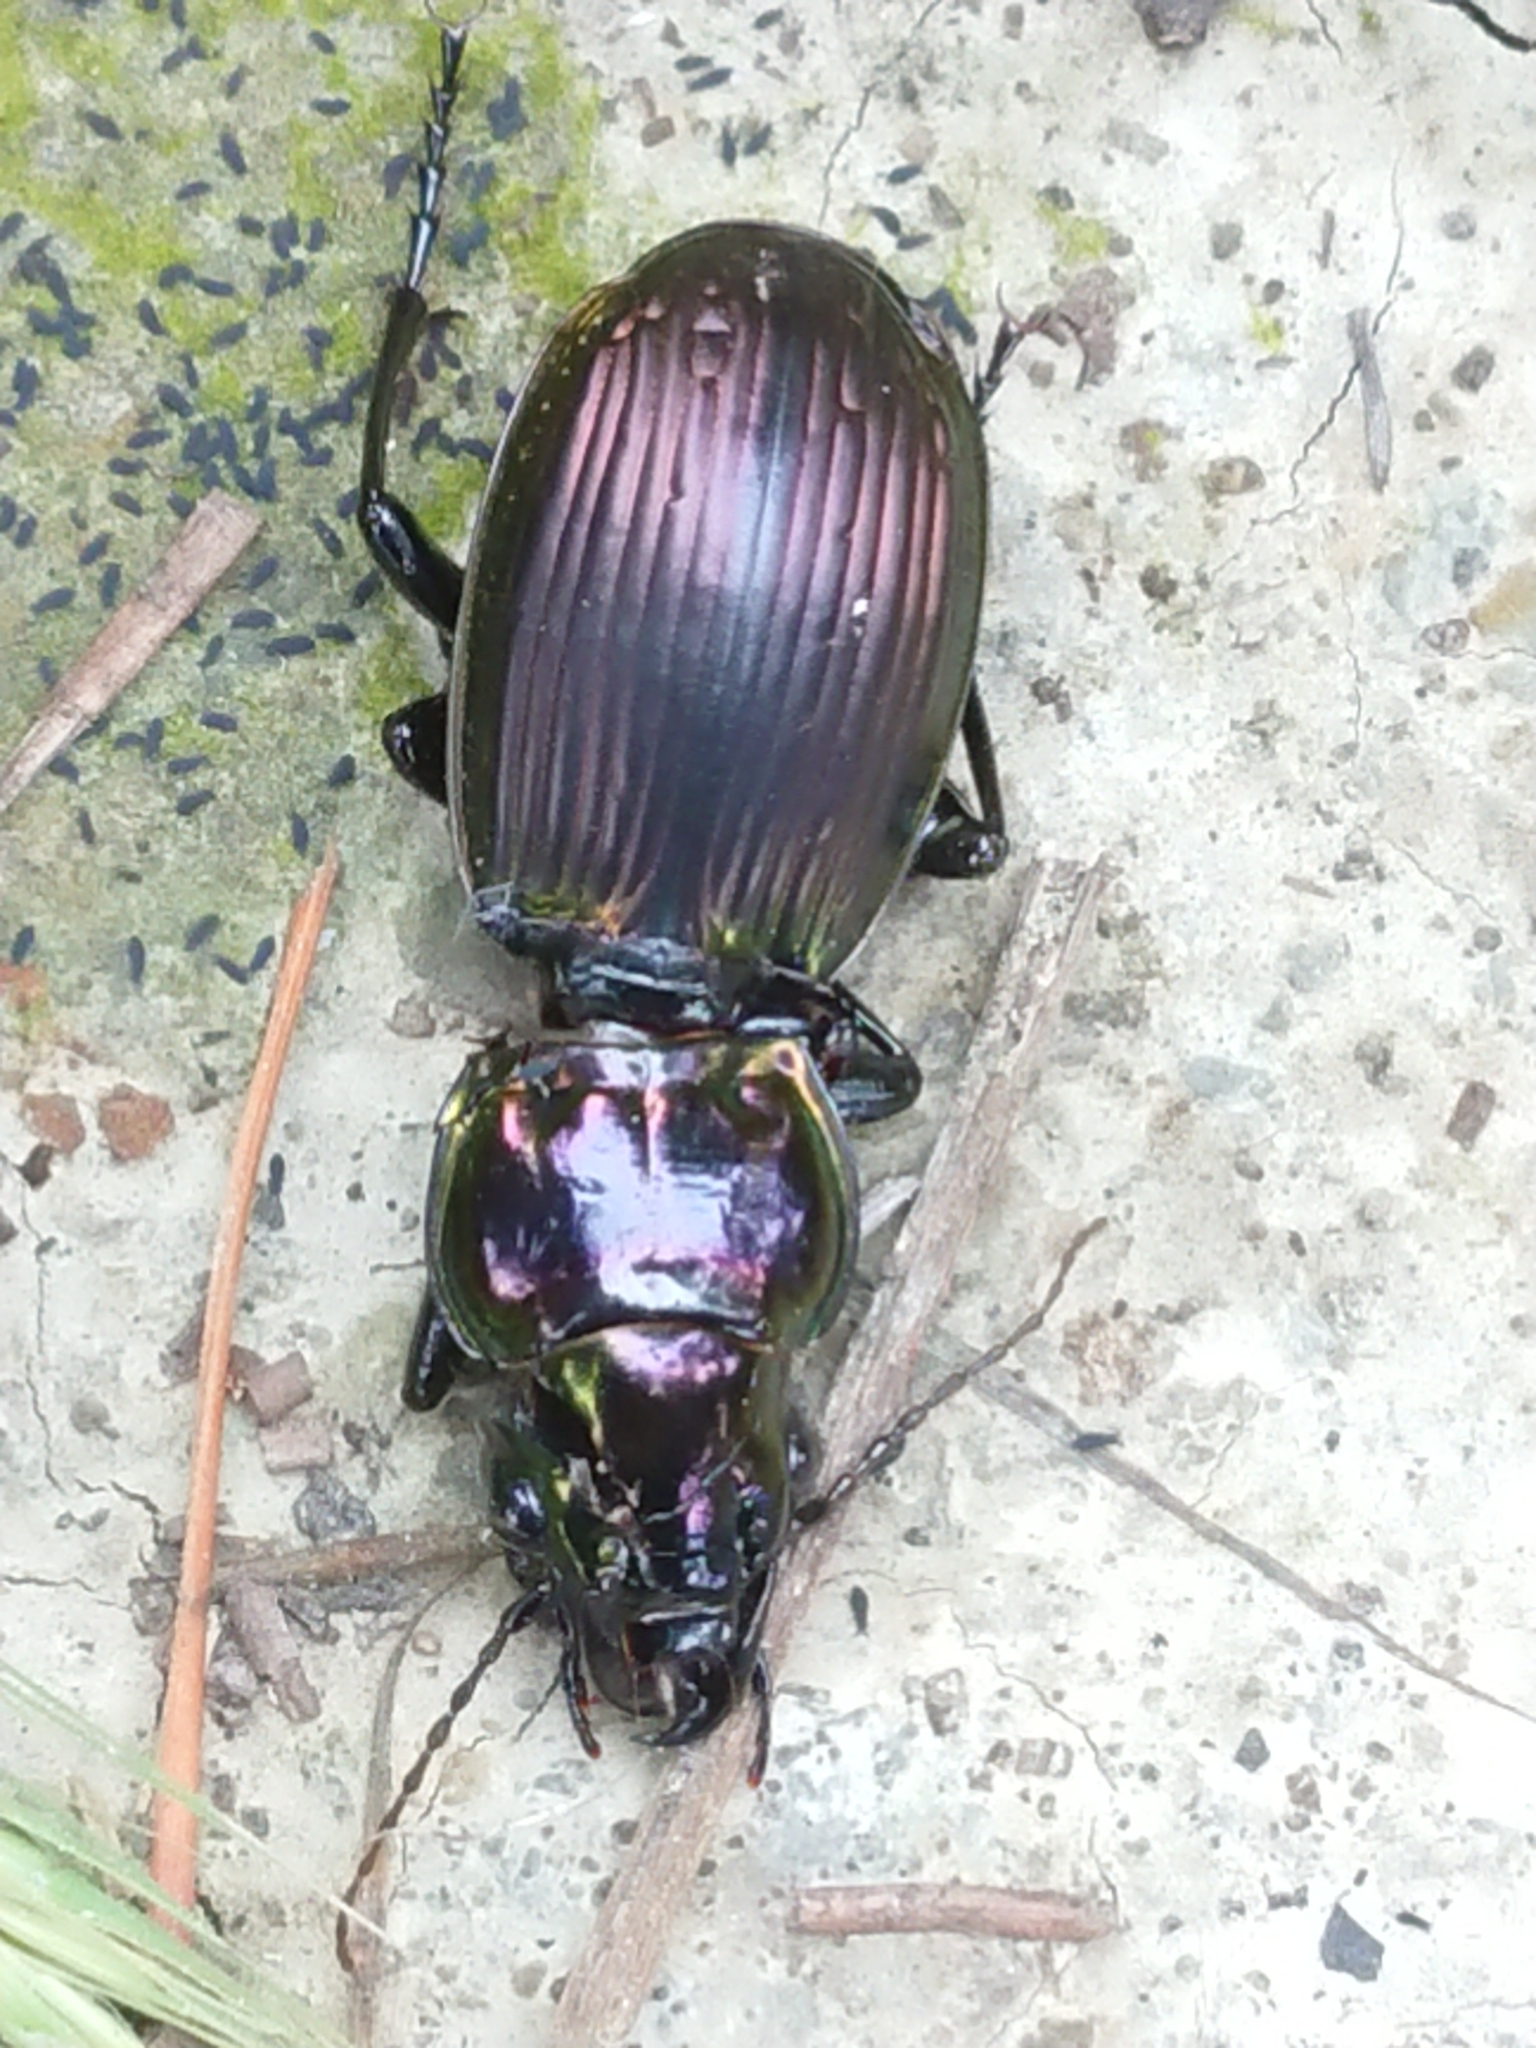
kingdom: Animalia
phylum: Arthropoda
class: Insecta
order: Coleoptera
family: Carabidae
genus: Megadromus
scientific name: Megadromus antarcticus
